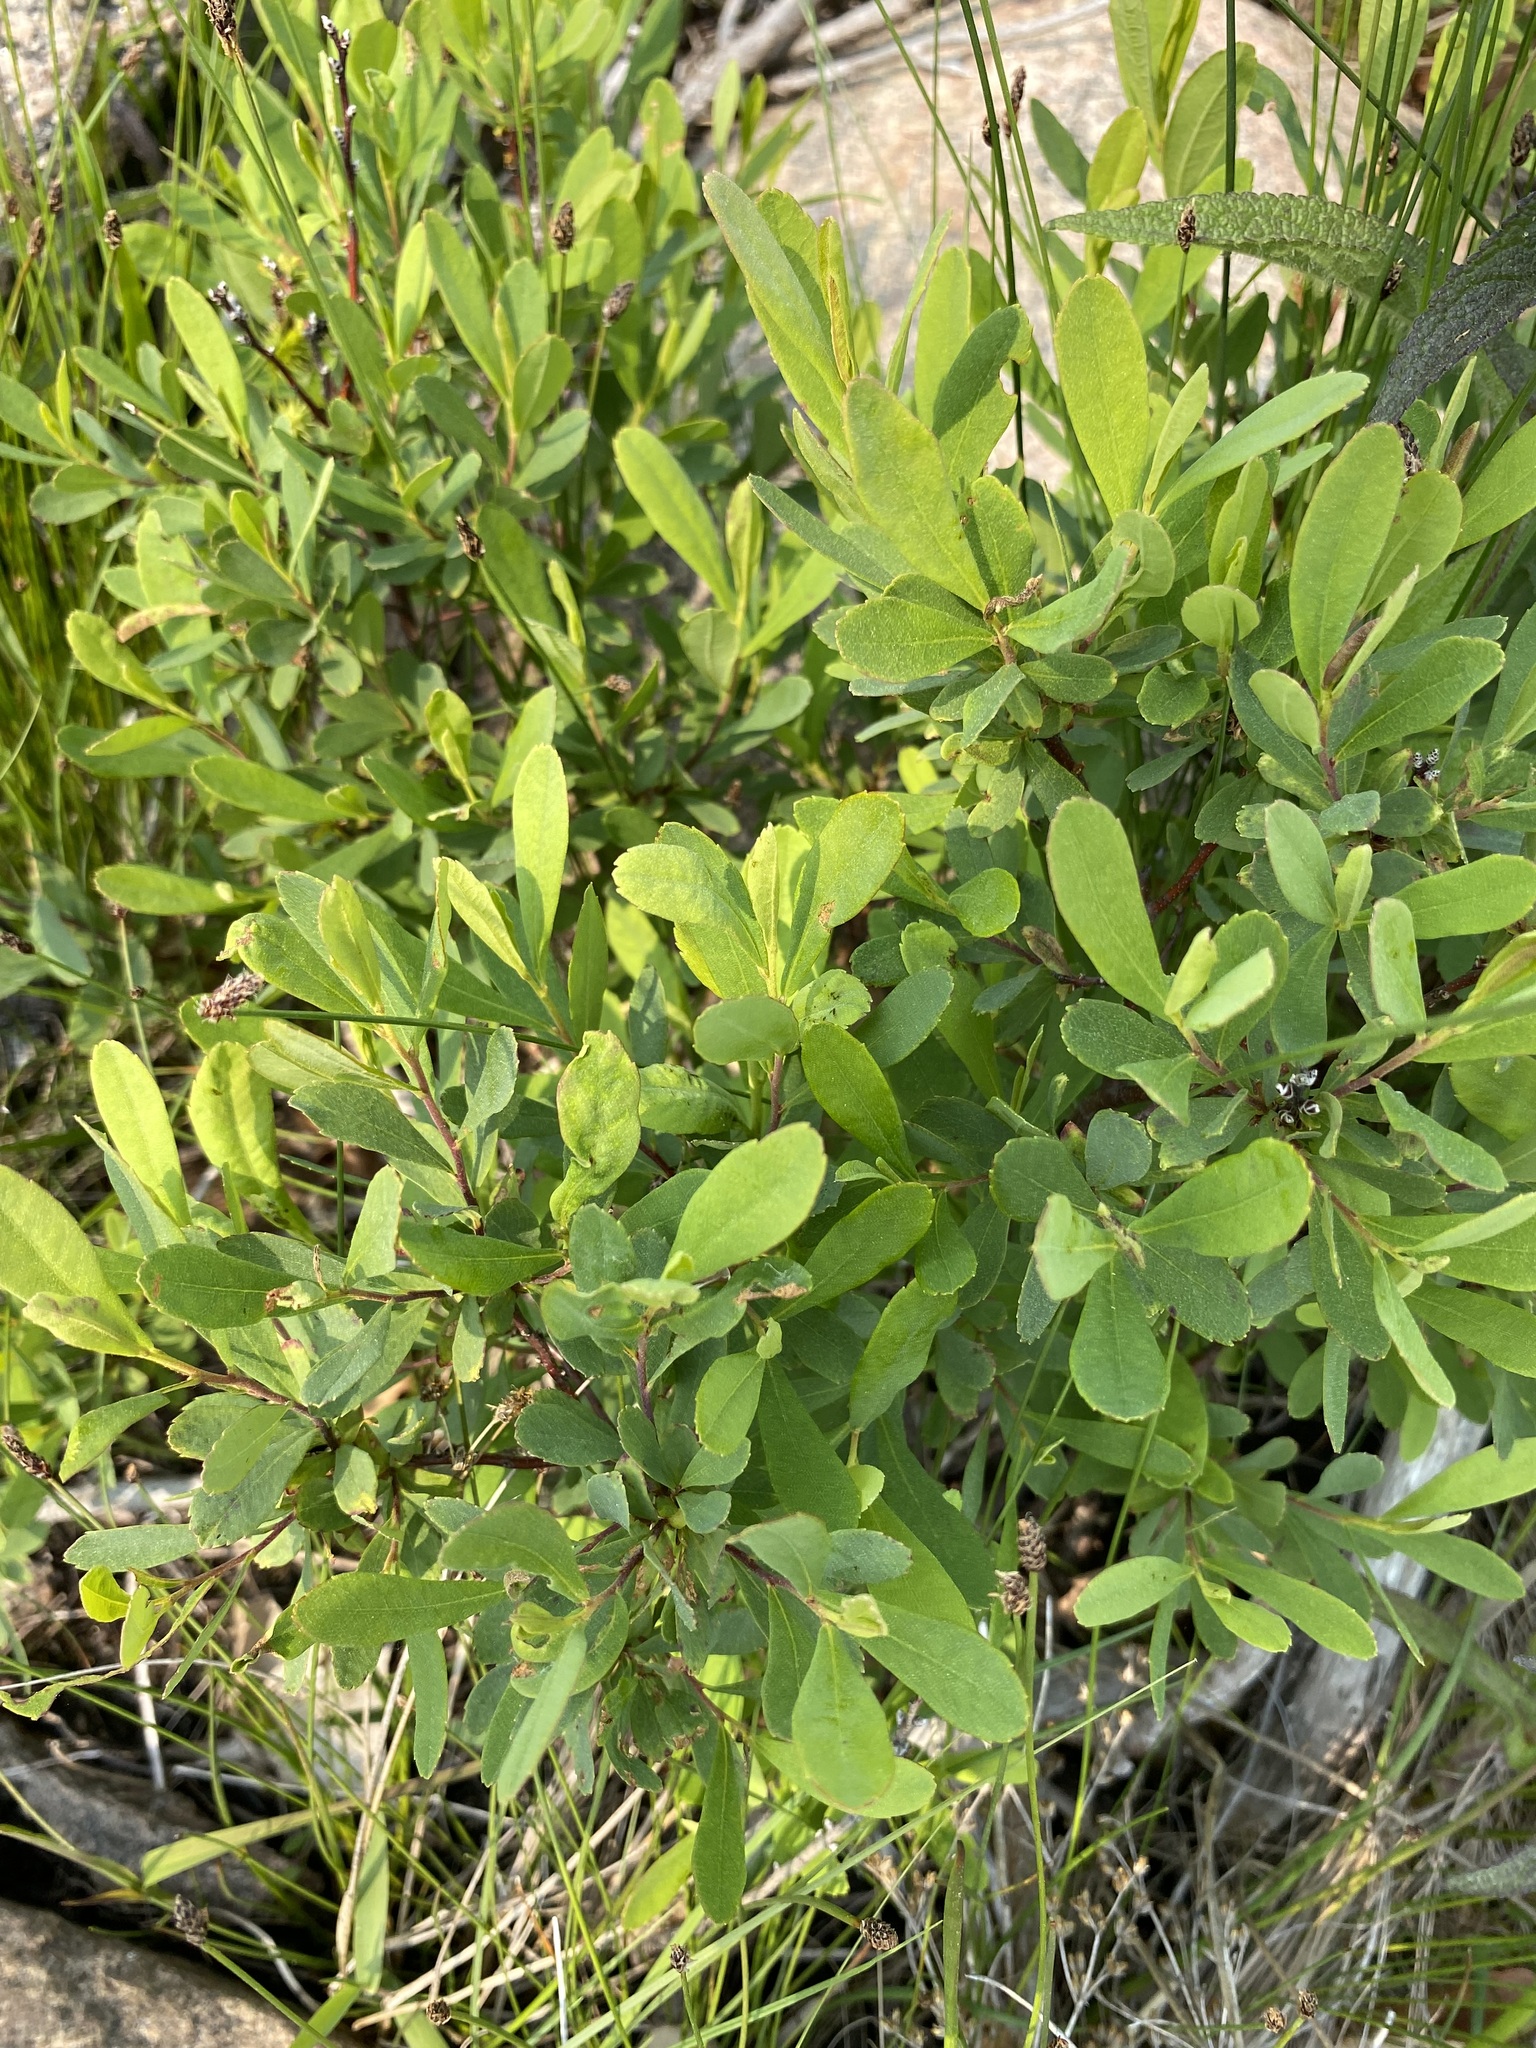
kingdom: Plantae
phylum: Tracheophyta
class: Magnoliopsida
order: Fagales
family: Myricaceae
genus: Myrica
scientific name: Myrica gale
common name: Sweet gale
